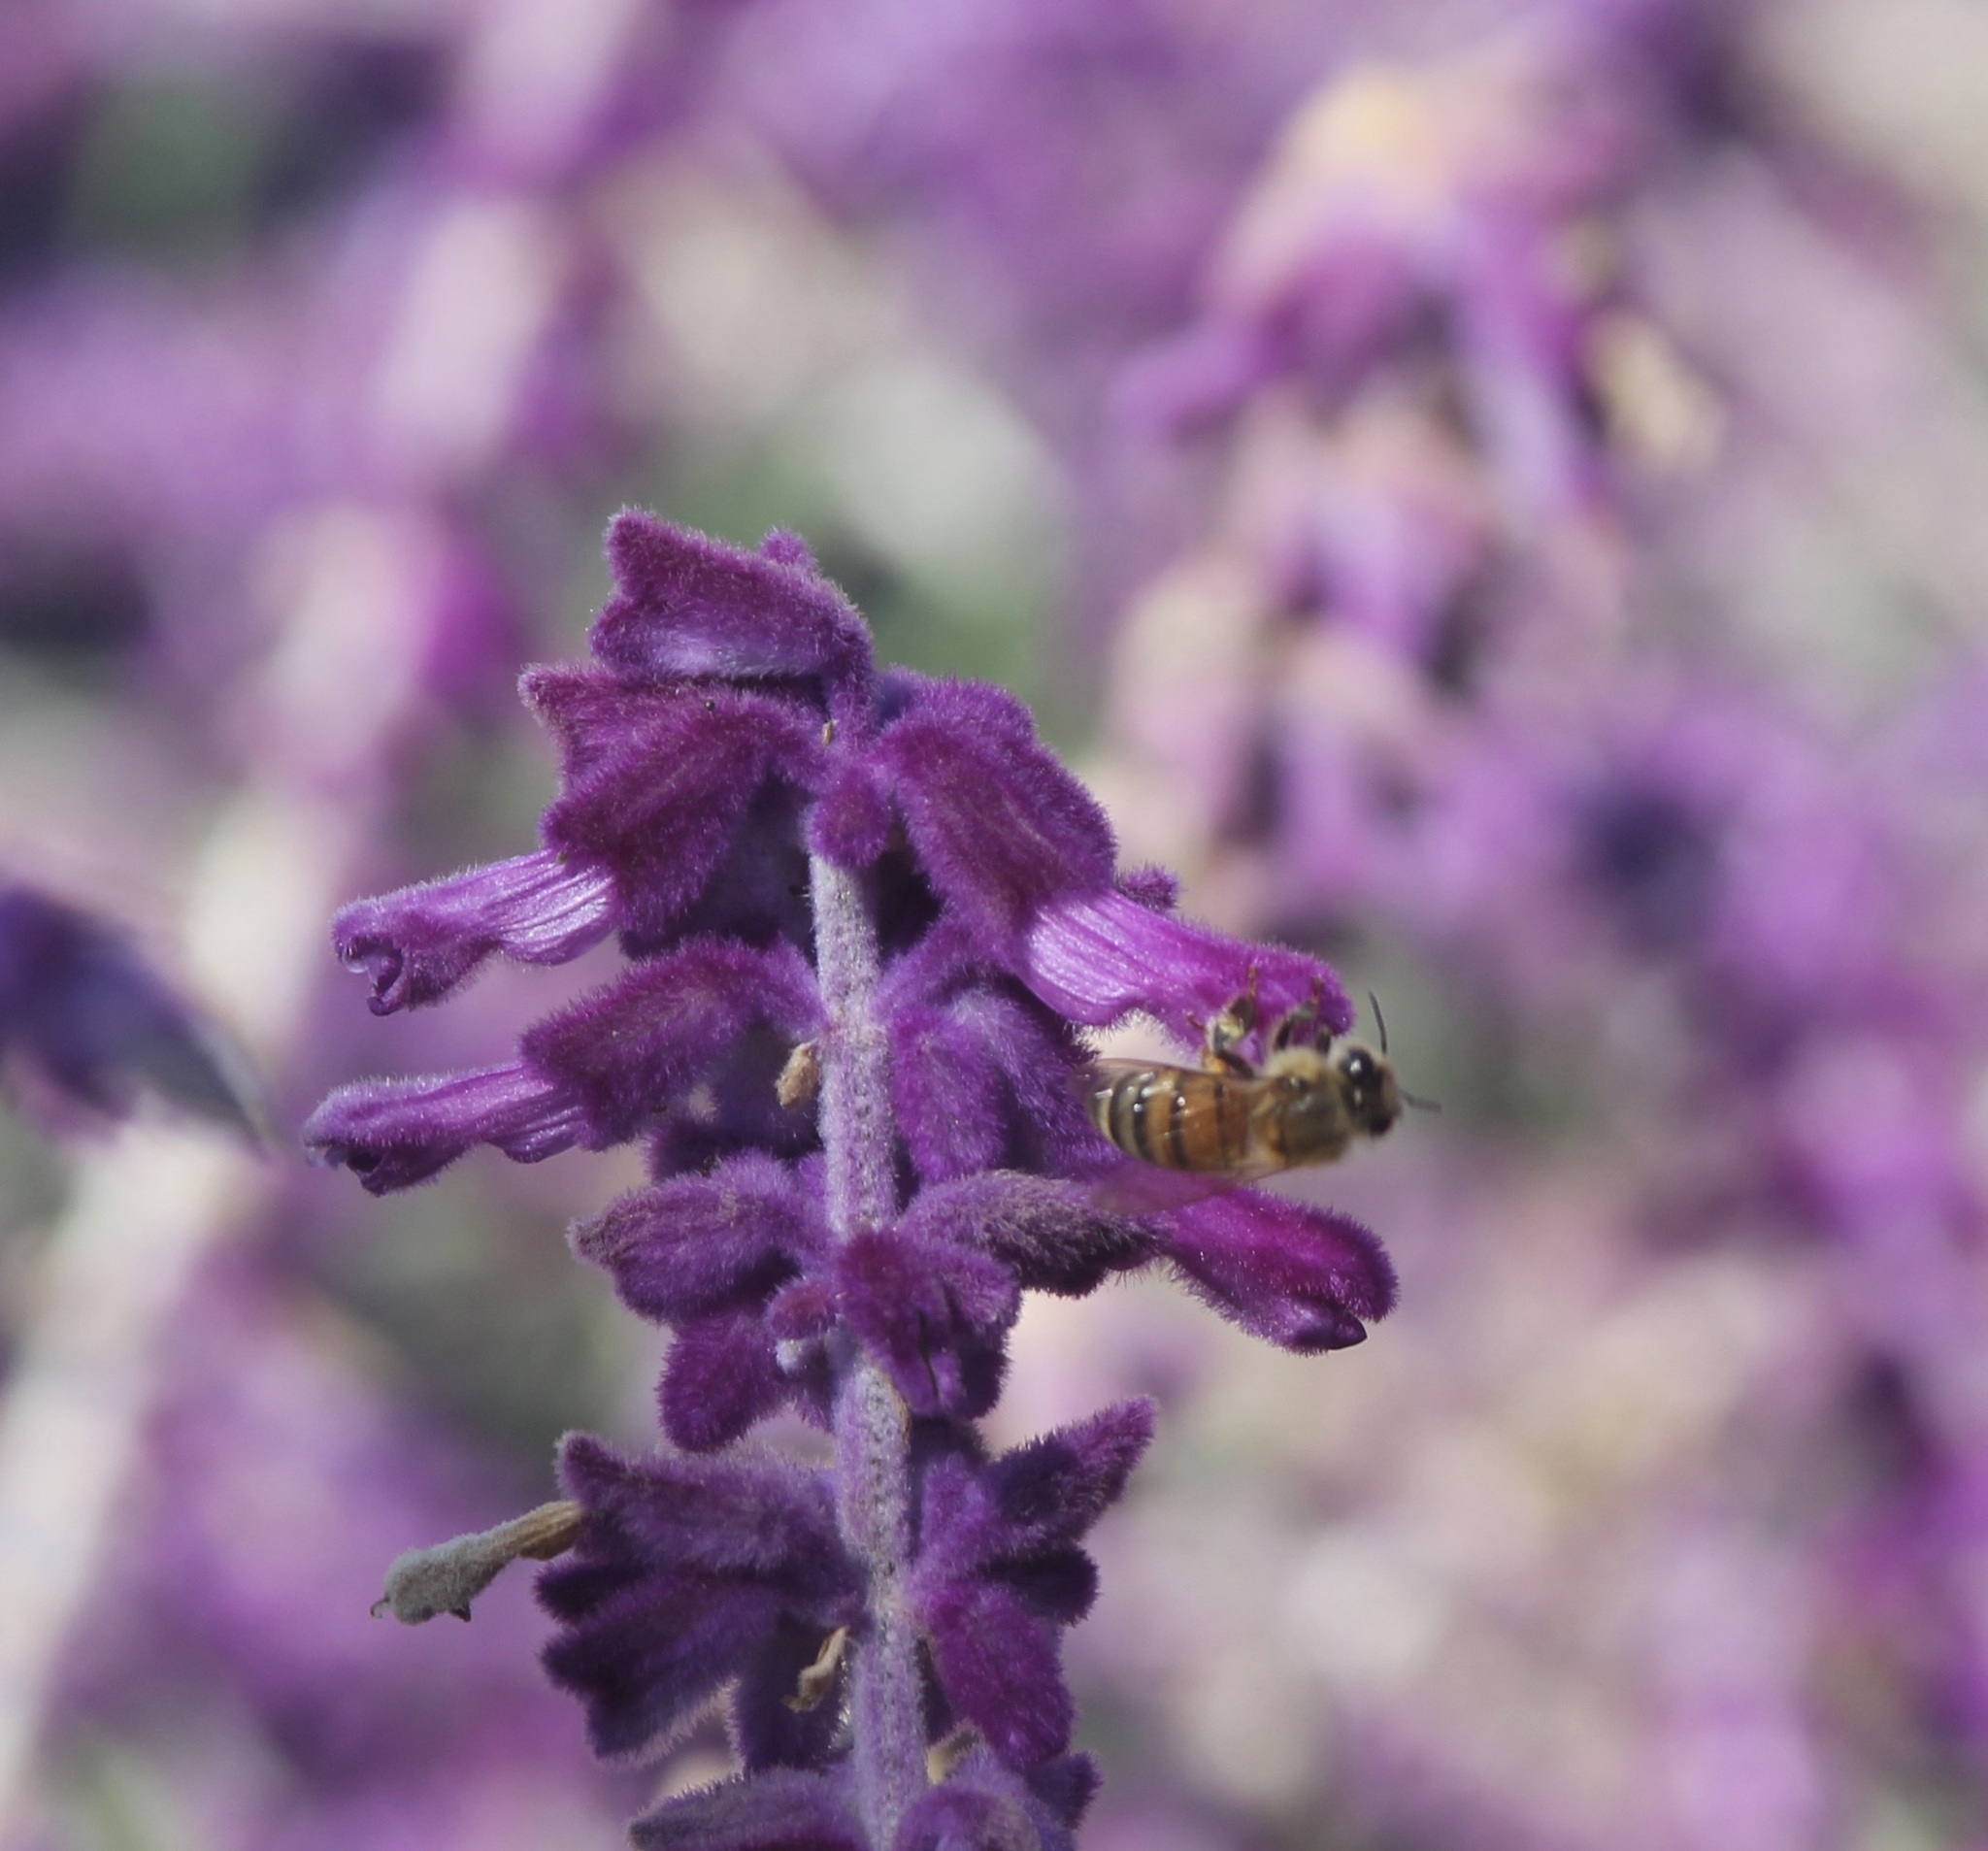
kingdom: Animalia
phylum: Arthropoda
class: Insecta
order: Hymenoptera
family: Apidae
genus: Apis
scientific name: Apis mellifera
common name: Honey bee
